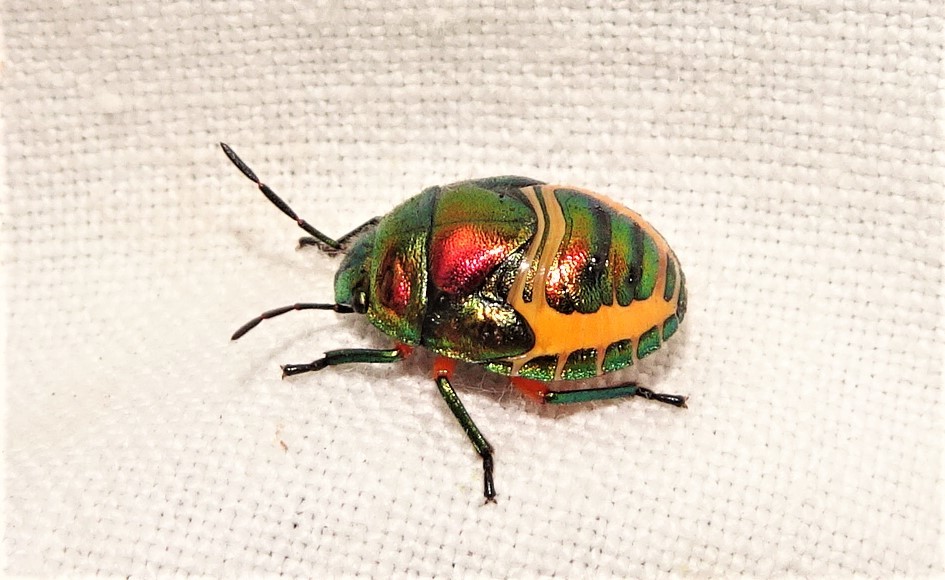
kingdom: Animalia
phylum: Arthropoda
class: Insecta
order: Hemiptera
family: Scutelleridae
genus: Lampromicra
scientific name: Lampromicra senator
